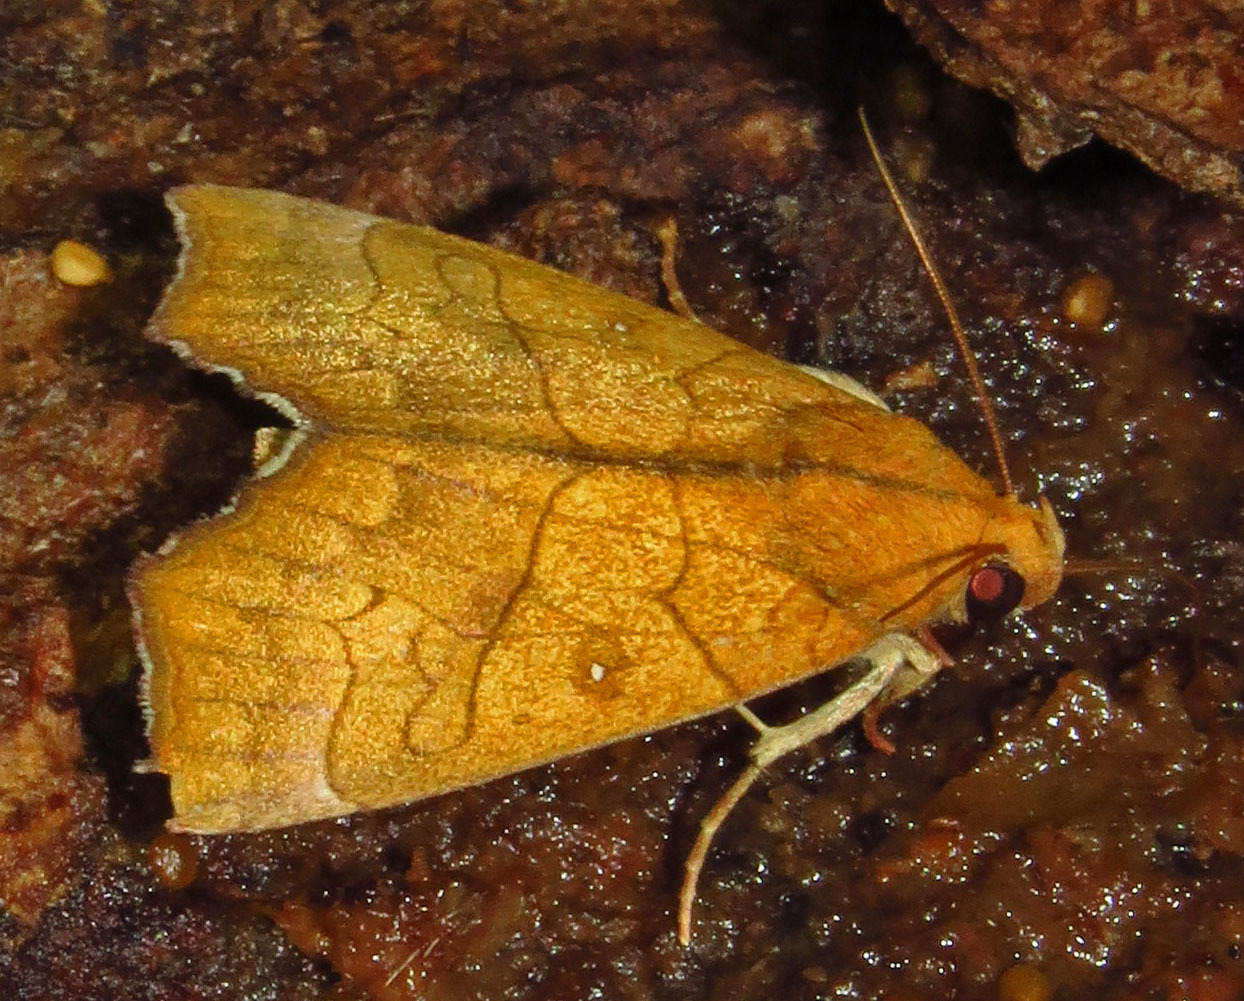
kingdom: Animalia
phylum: Arthropoda
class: Insecta
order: Lepidoptera
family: Erebidae
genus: Anomis
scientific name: Anomis erosa
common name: Yellow scallop moth
